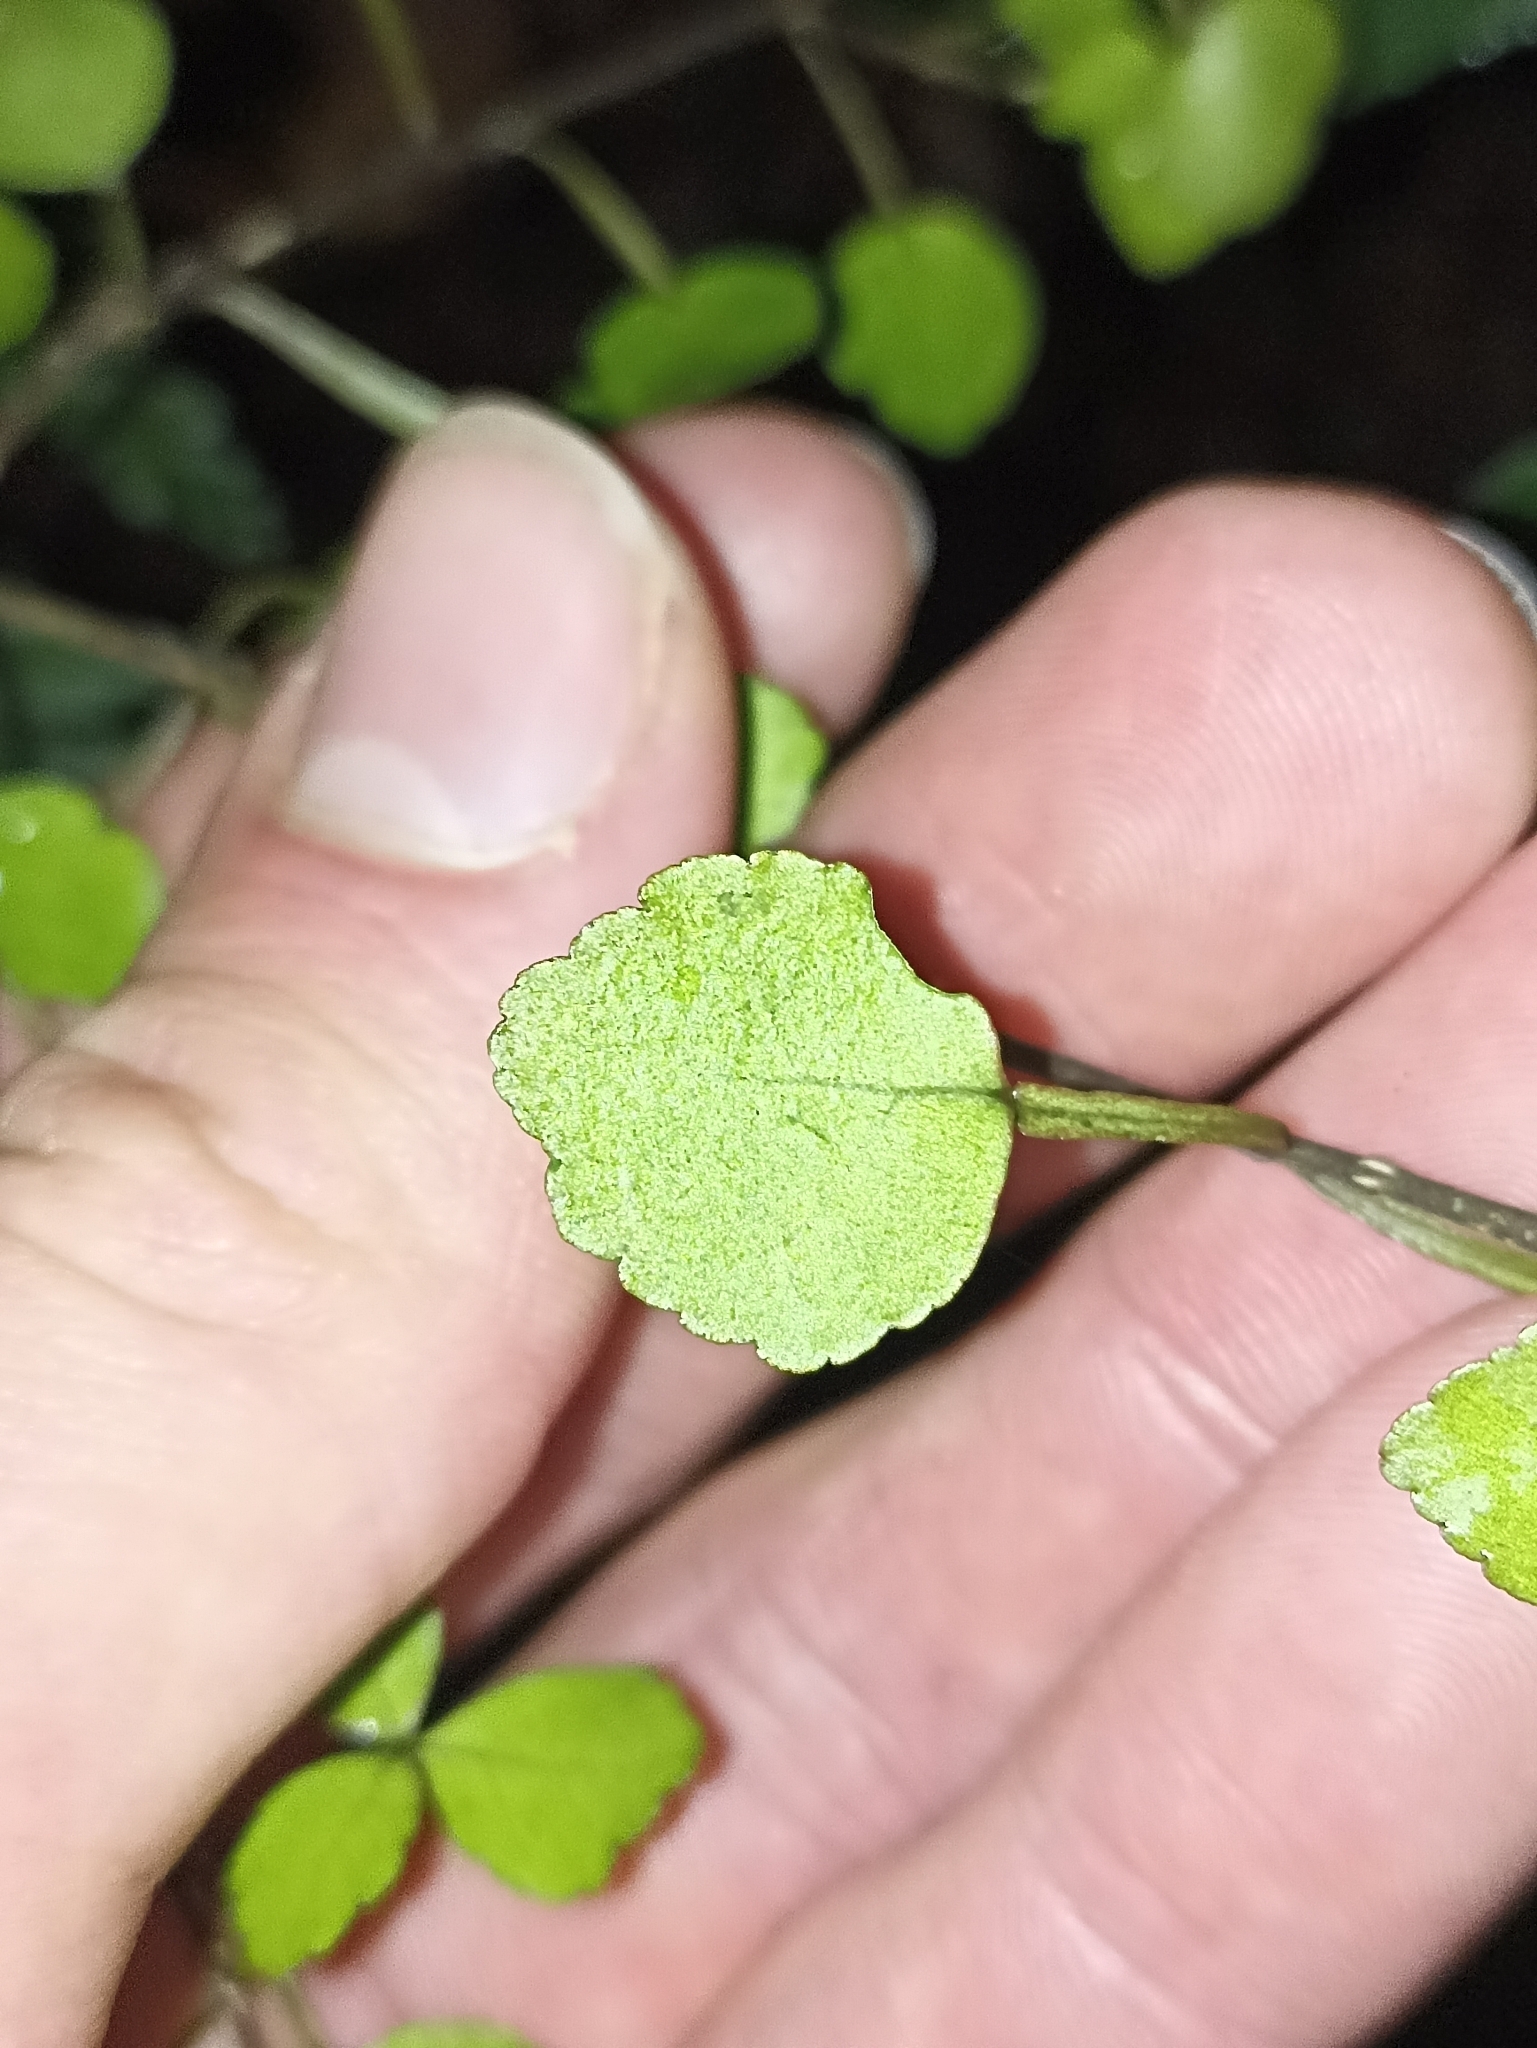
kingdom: Plantae
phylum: Tracheophyta
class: Magnoliopsida
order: Sapindales
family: Rutaceae
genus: Melicope
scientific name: Melicope simplex
